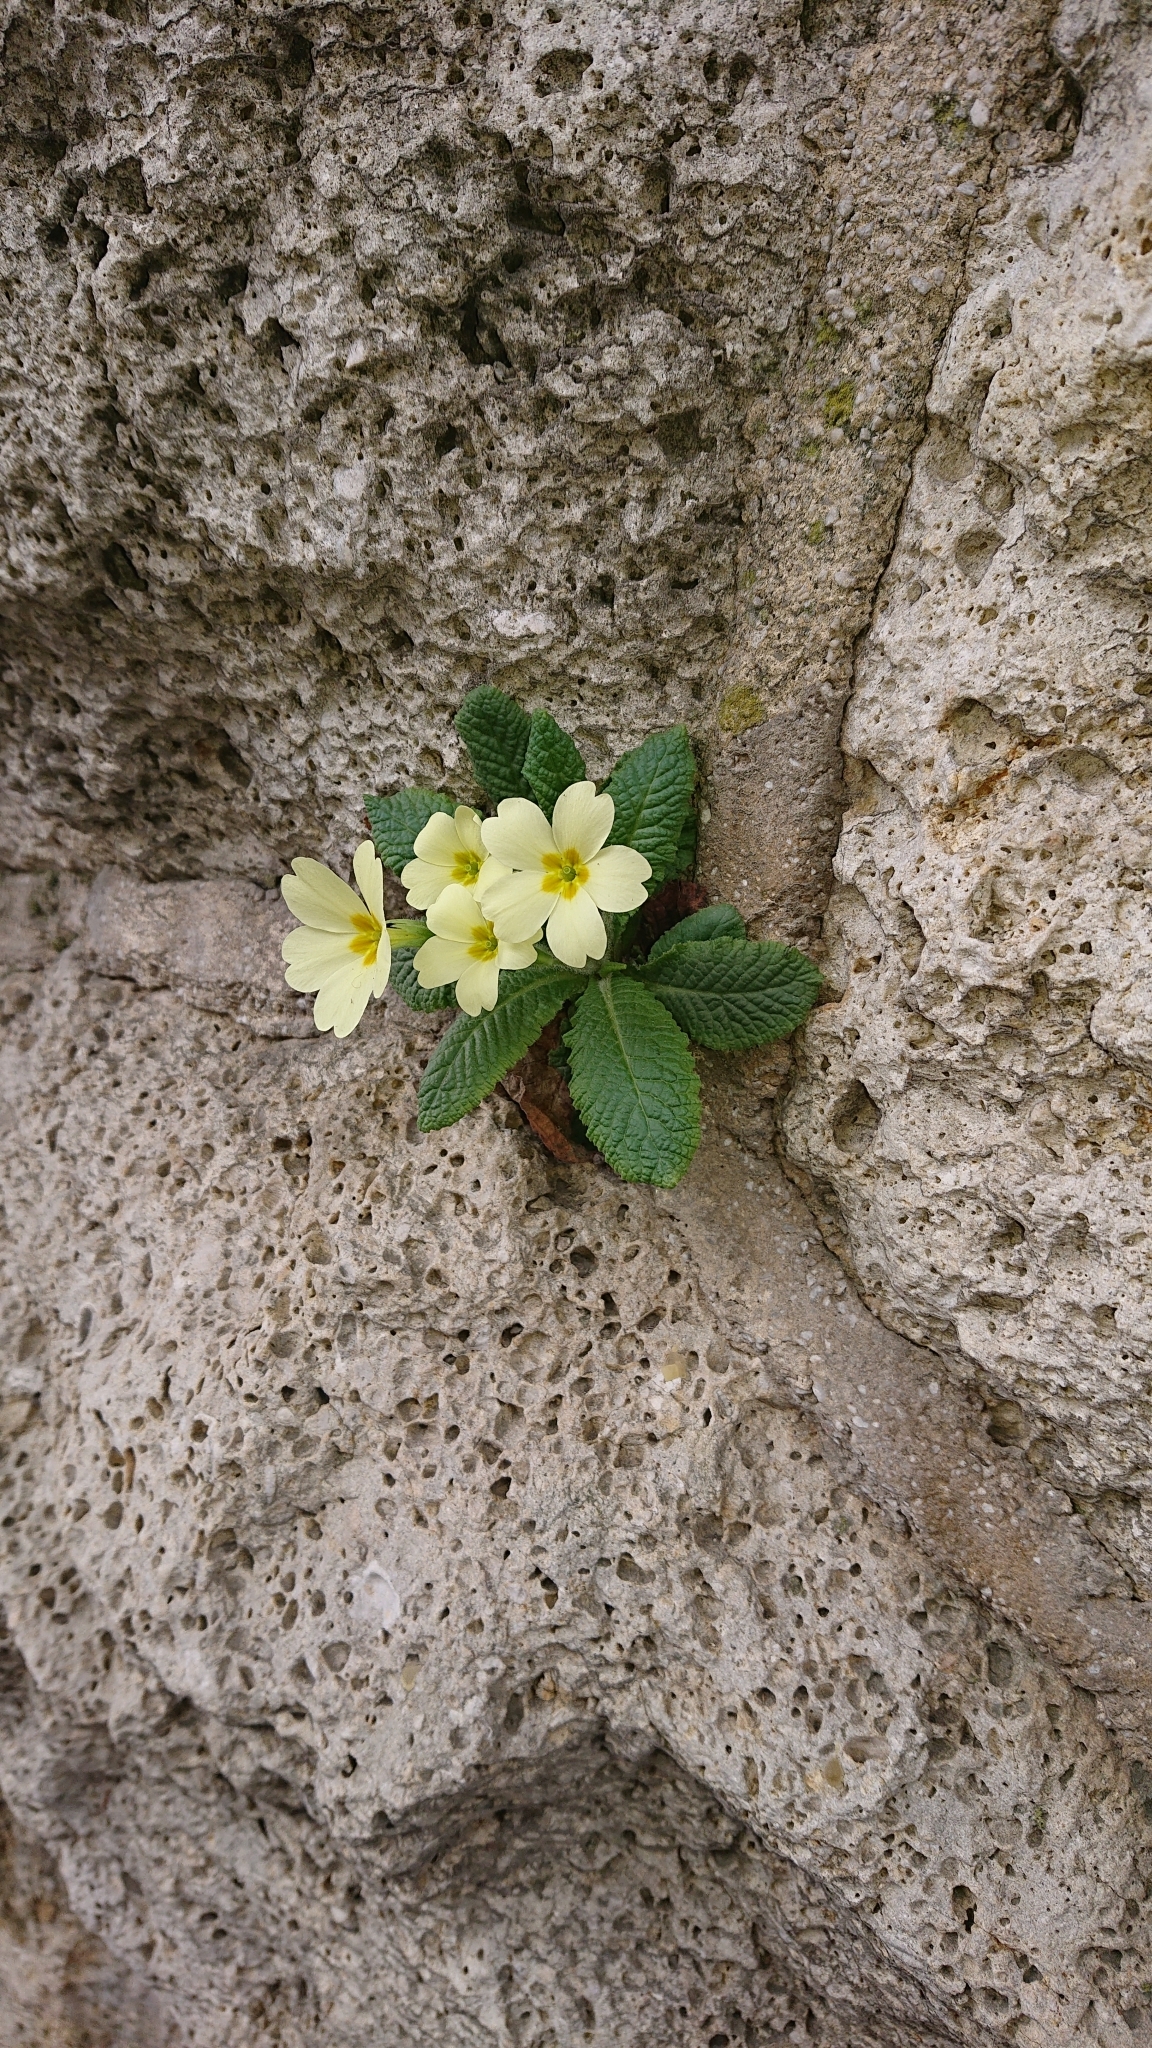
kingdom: Plantae
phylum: Tracheophyta
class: Magnoliopsida
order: Ericales
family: Primulaceae
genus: Primula
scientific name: Primula vulgaris
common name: Primrose
